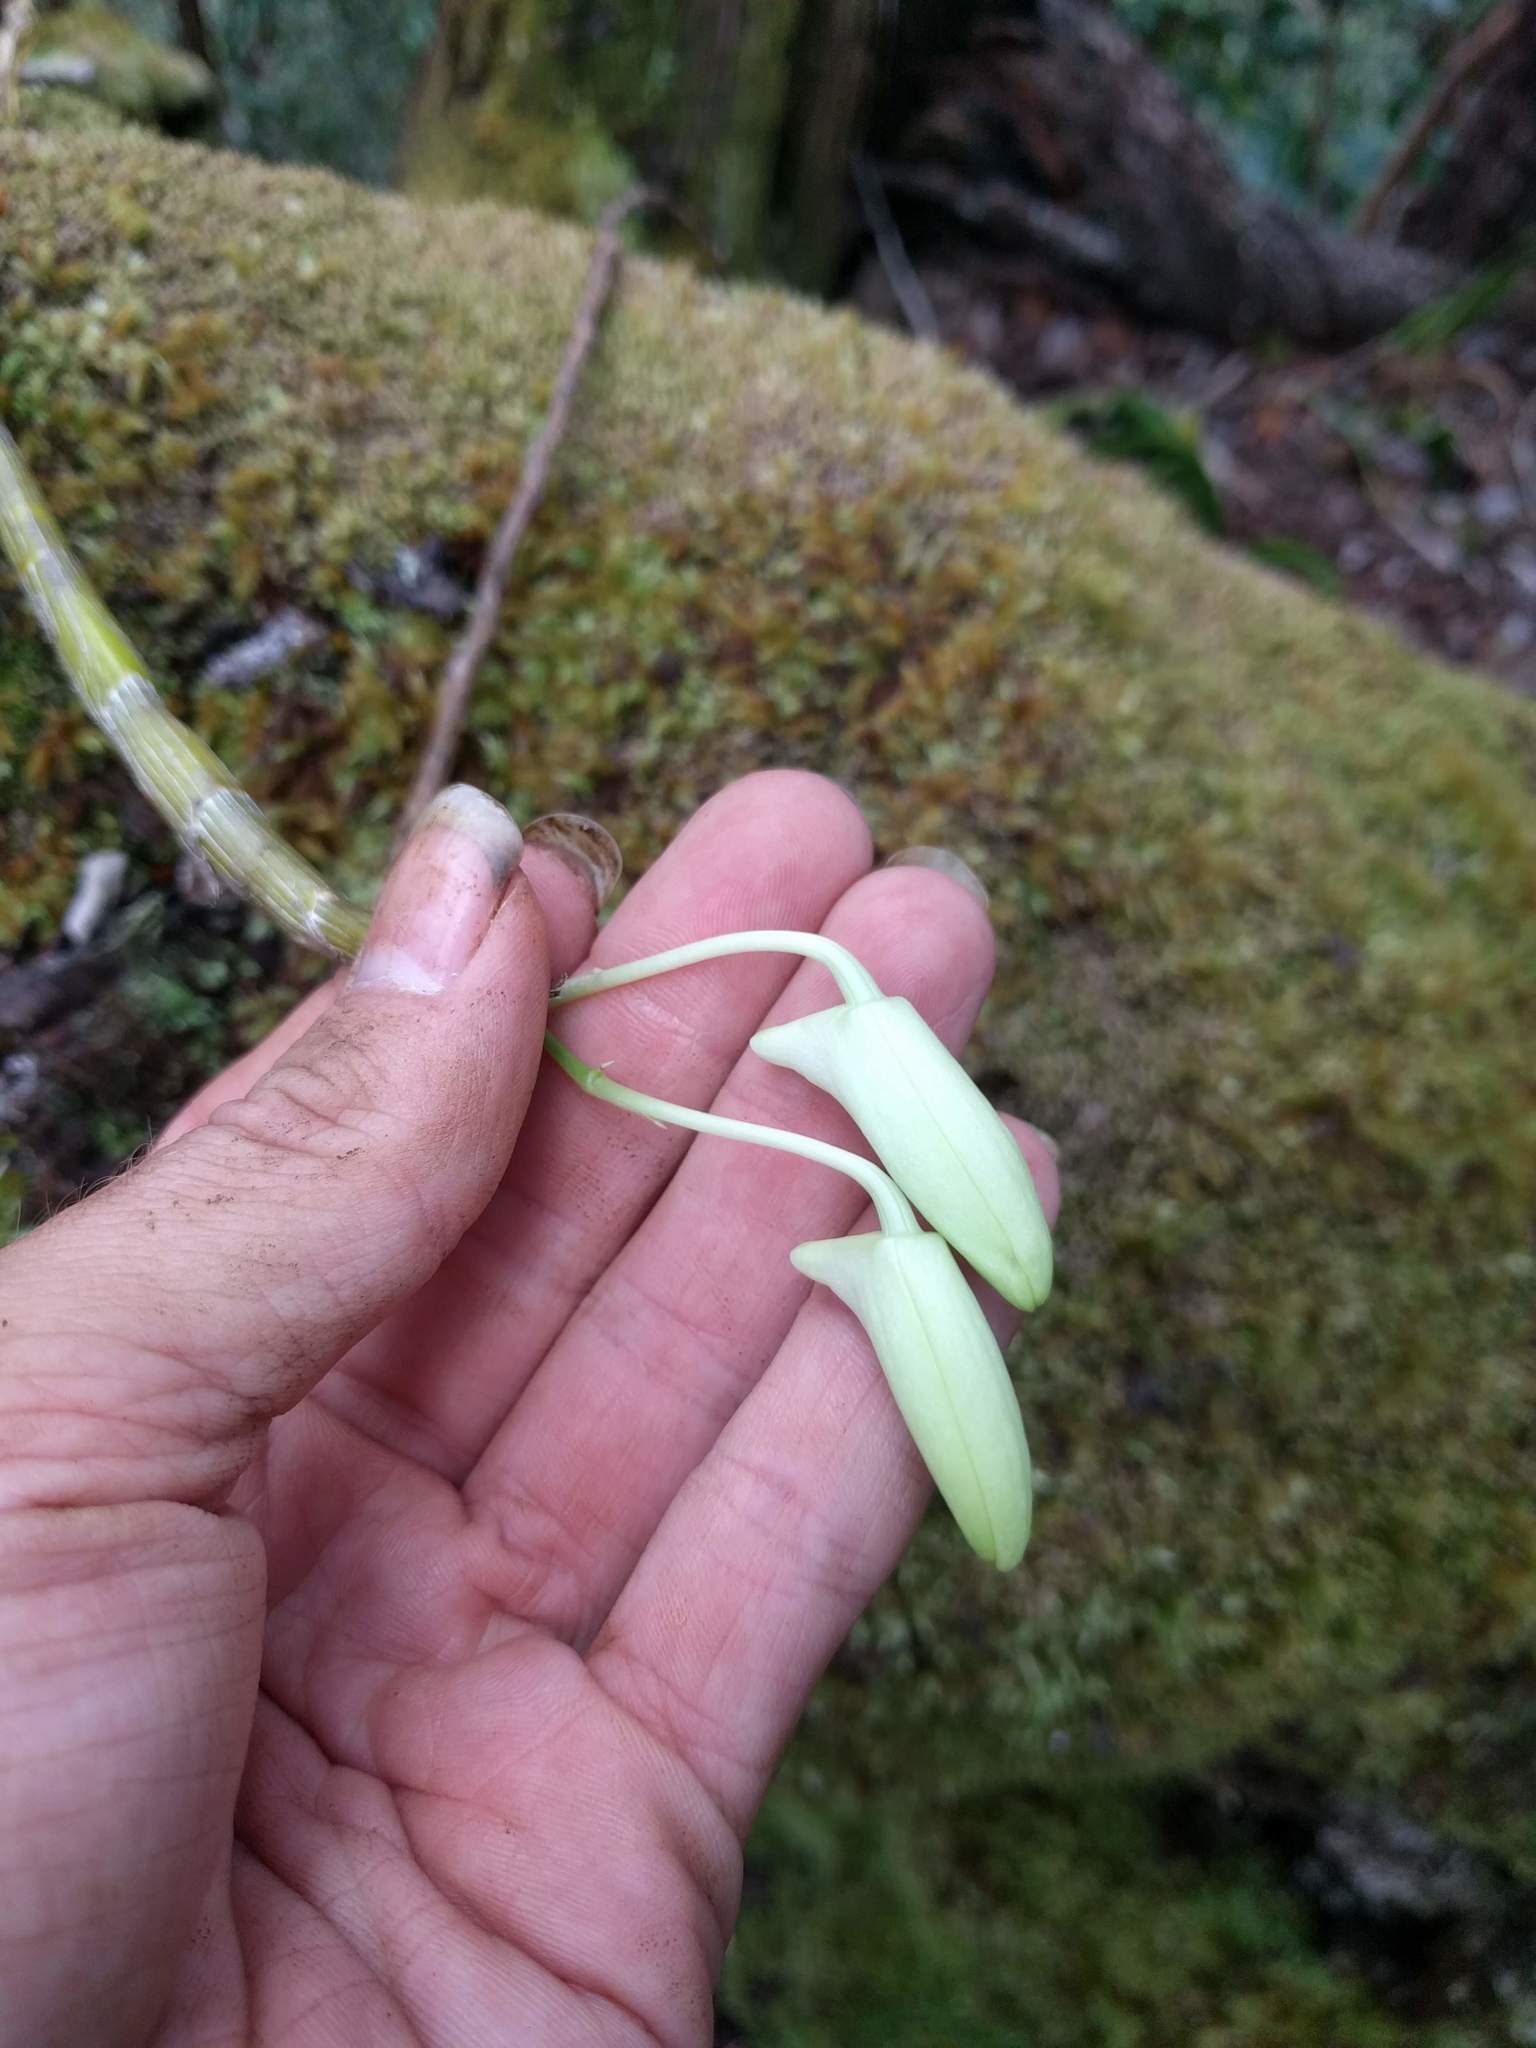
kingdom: Plantae
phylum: Tracheophyta
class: Liliopsida
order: Asparagales
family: Orchidaceae
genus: Dendrobium
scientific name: Dendrobium rhombeum
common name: Orchid
